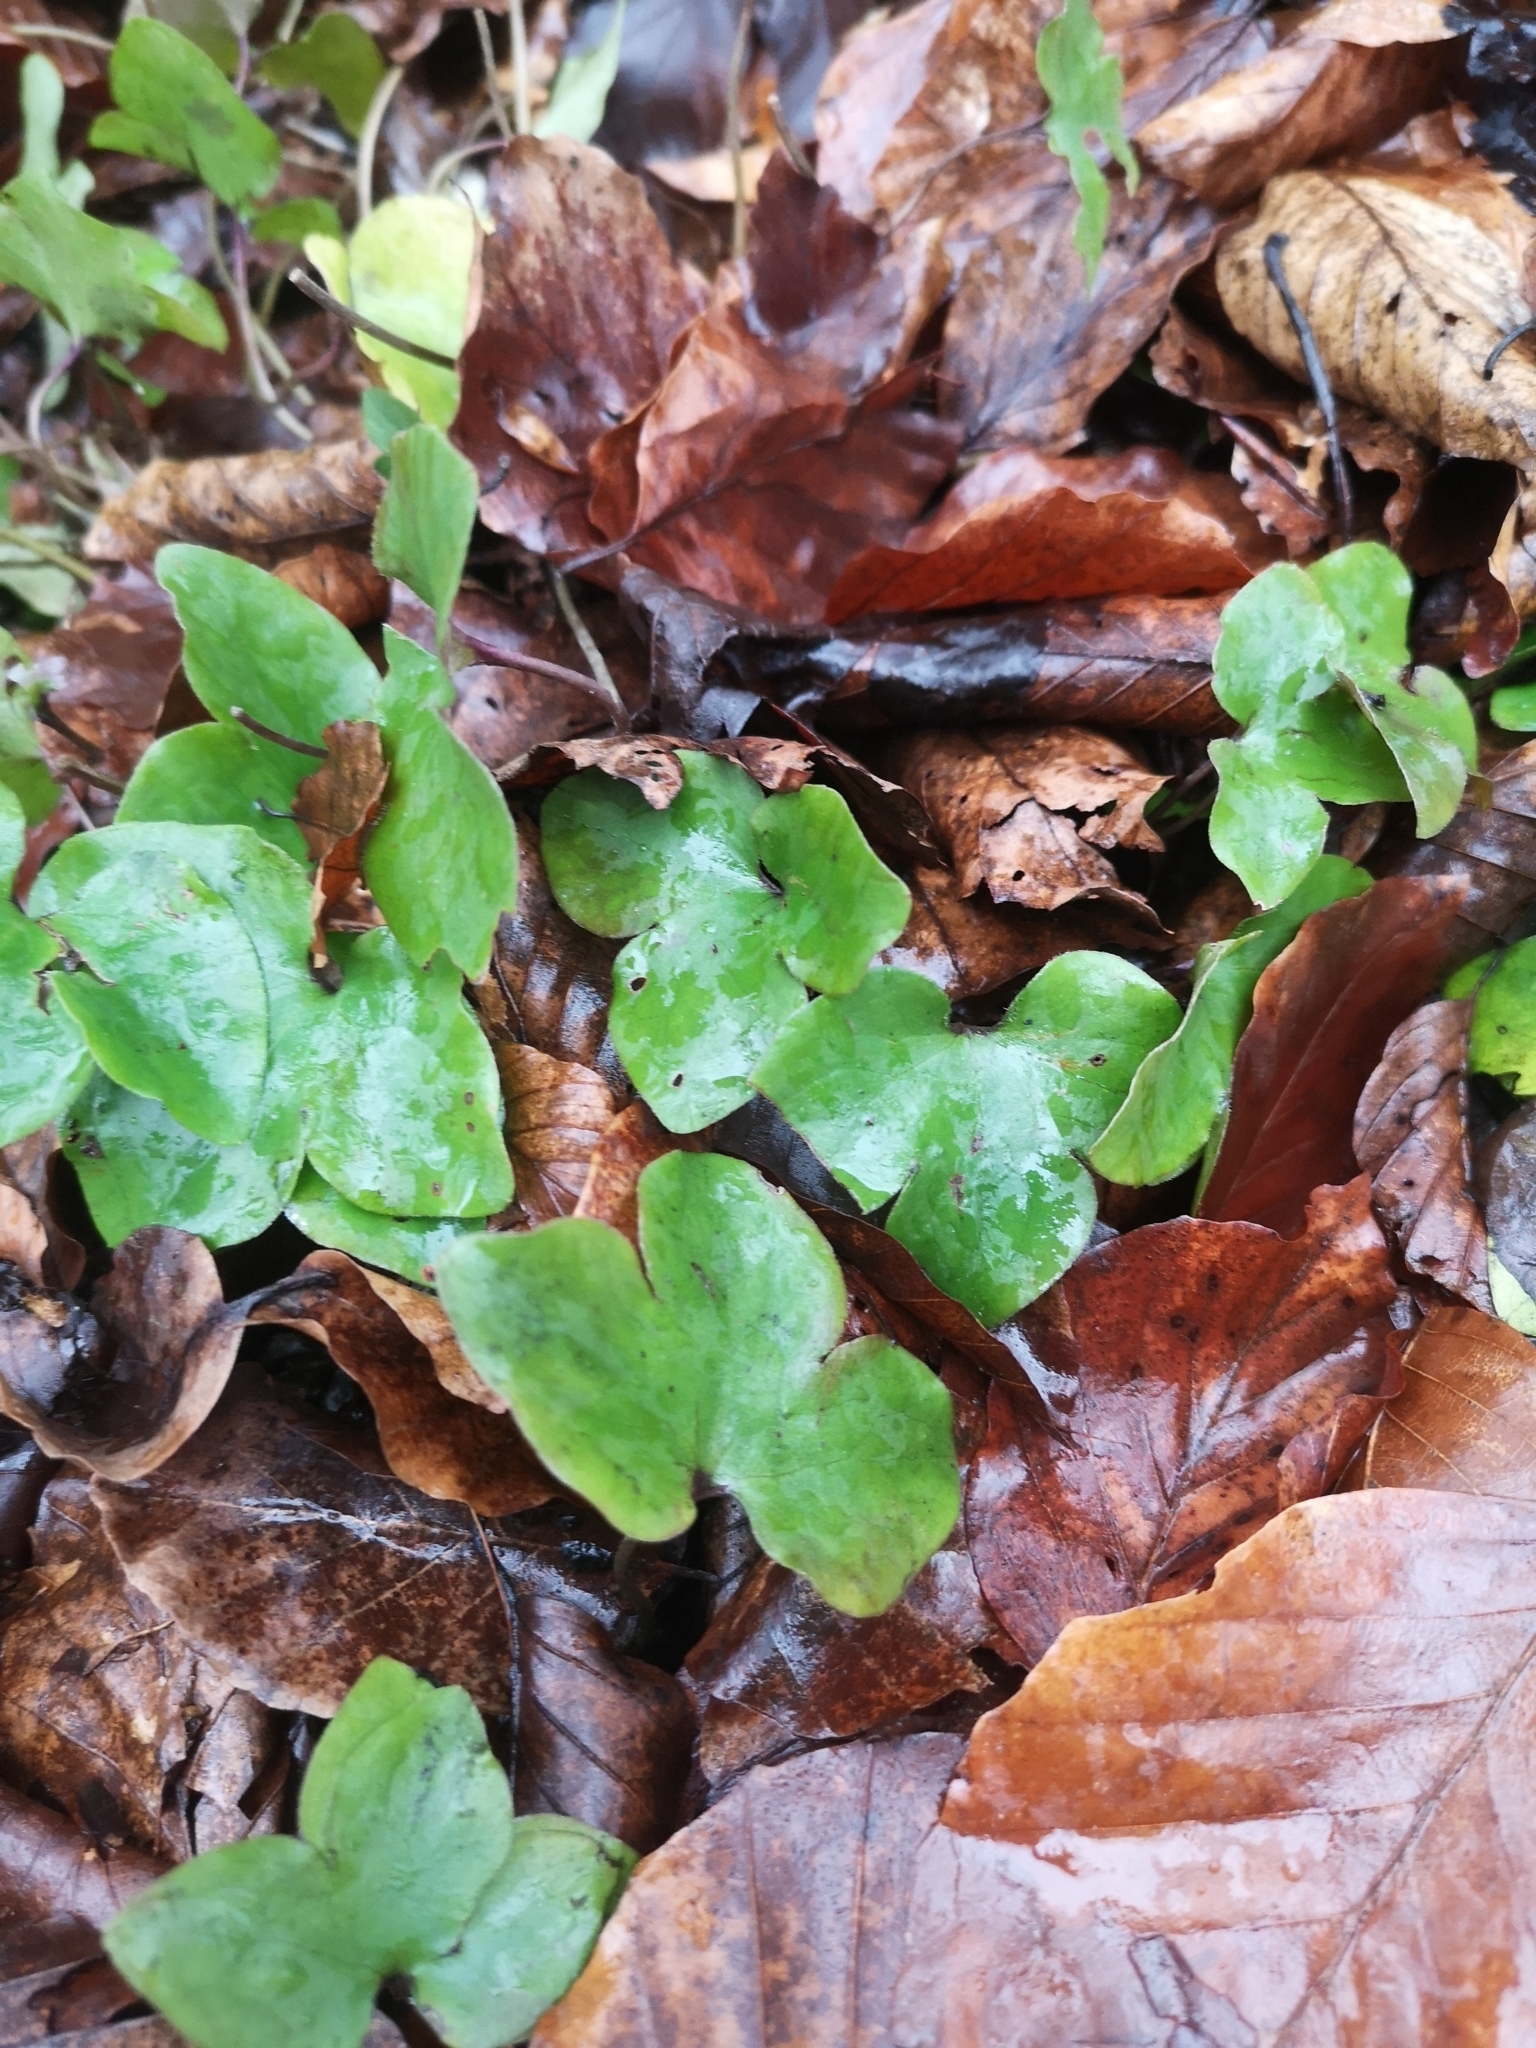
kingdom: Plantae
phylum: Tracheophyta
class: Magnoliopsida
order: Ranunculales
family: Ranunculaceae
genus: Hepatica
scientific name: Hepatica nobilis
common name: Liverleaf
